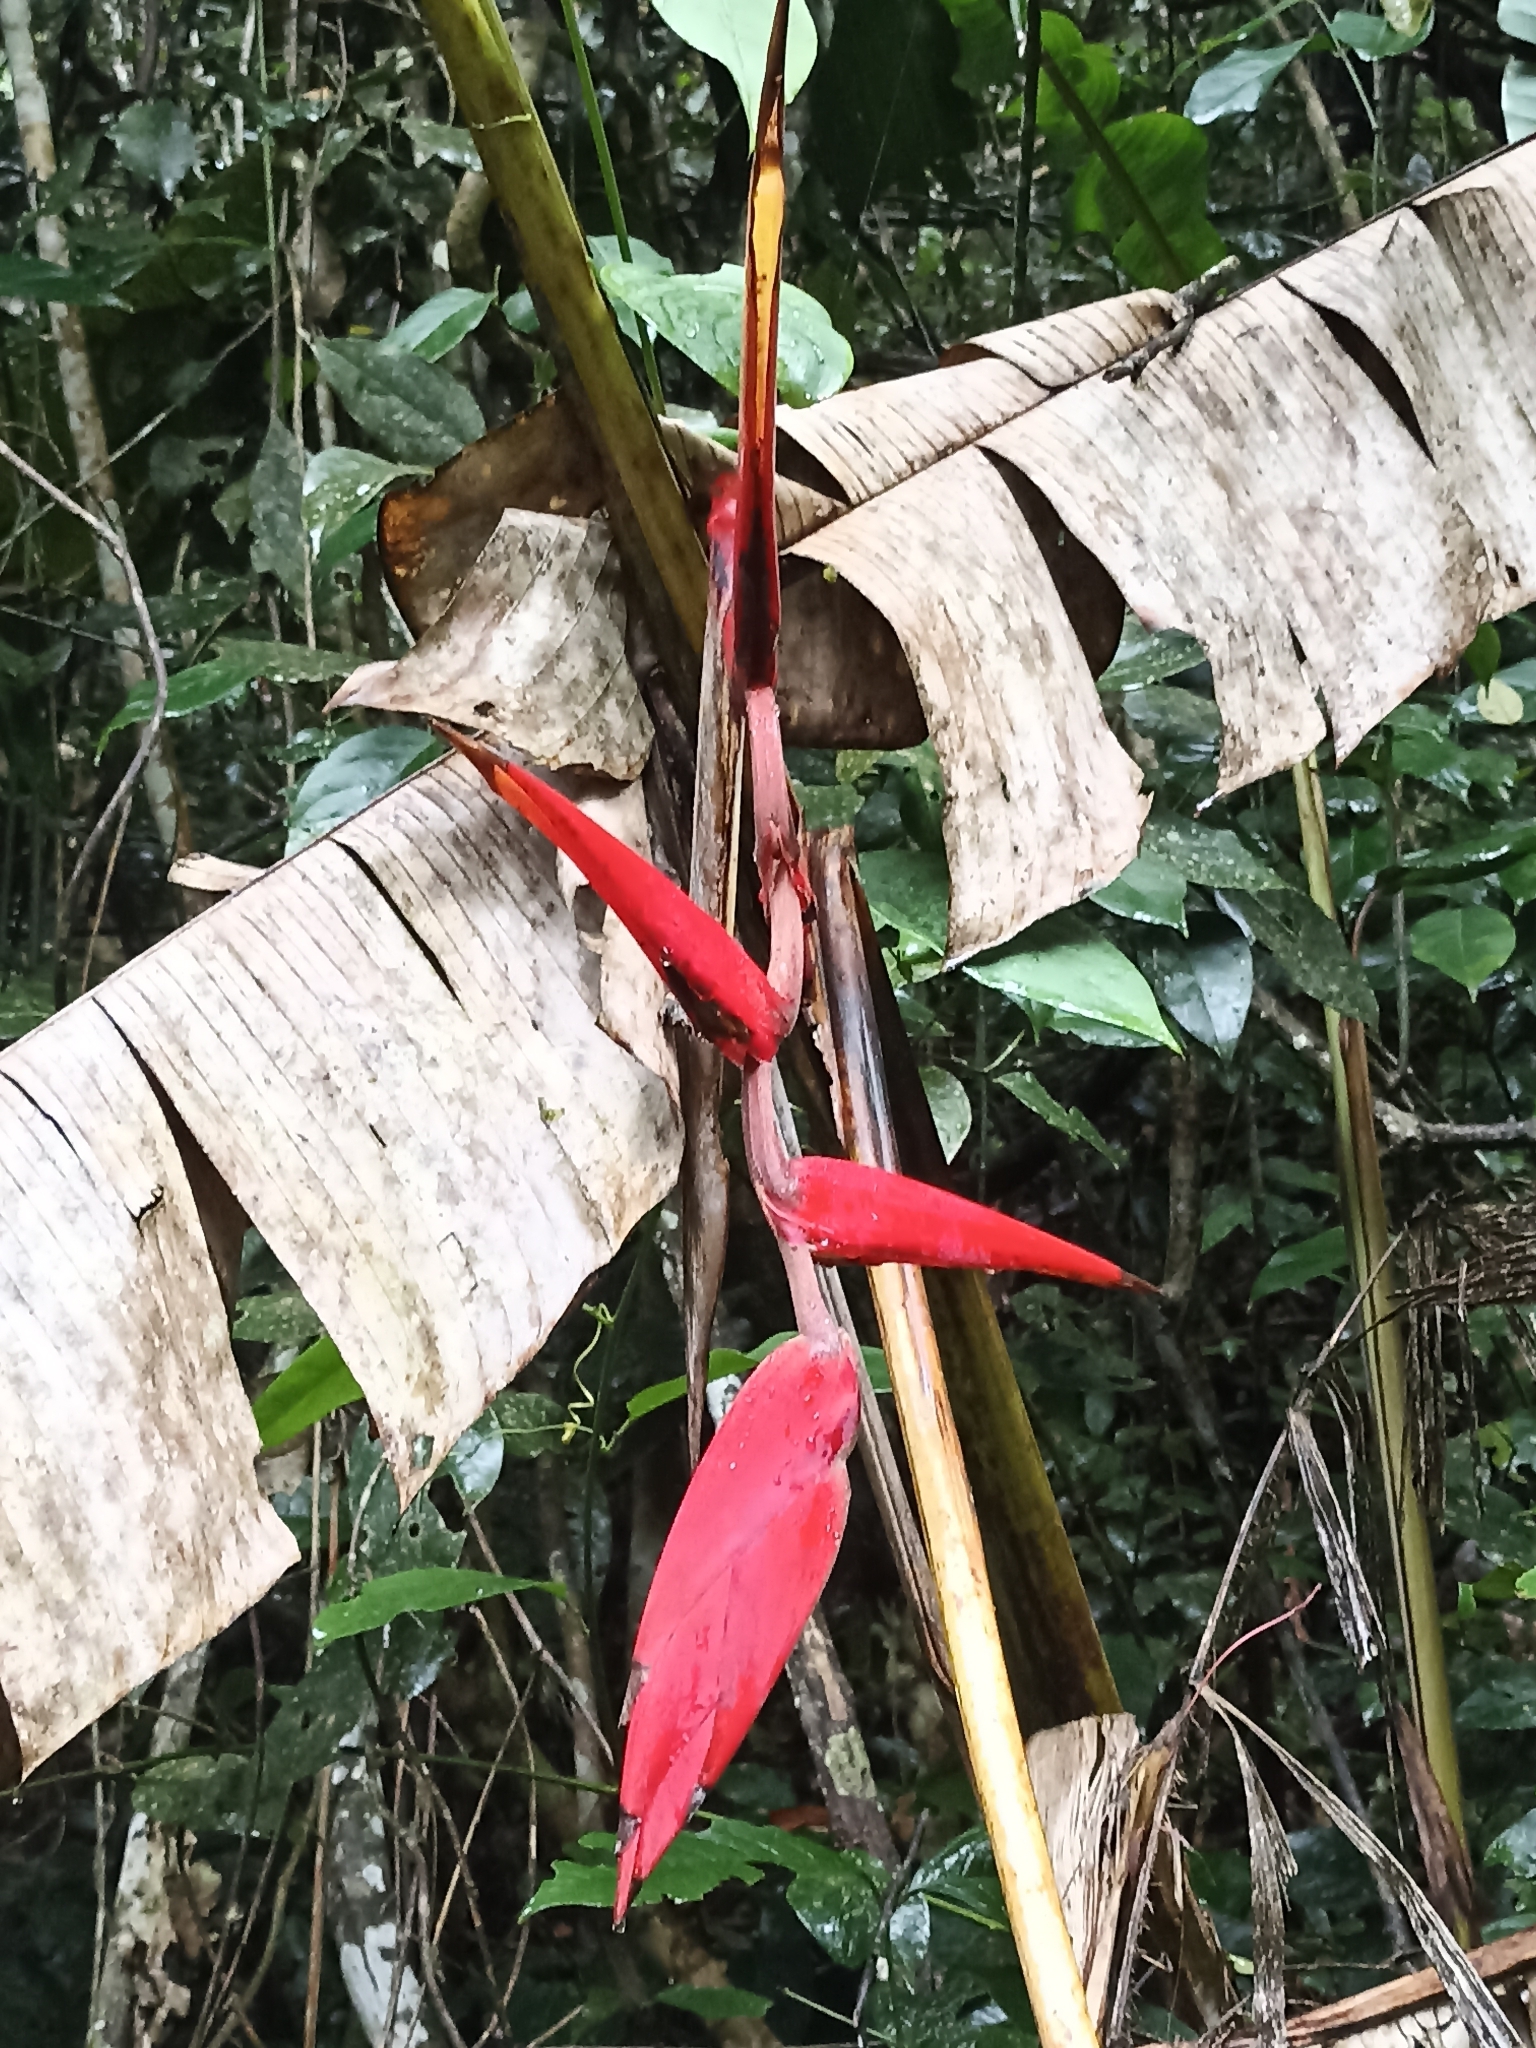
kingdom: Plantae
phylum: Tracheophyta
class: Liliopsida
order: Zingiberales
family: Heliconiaceae
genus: Heliconia
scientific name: Heliconia huilensis
